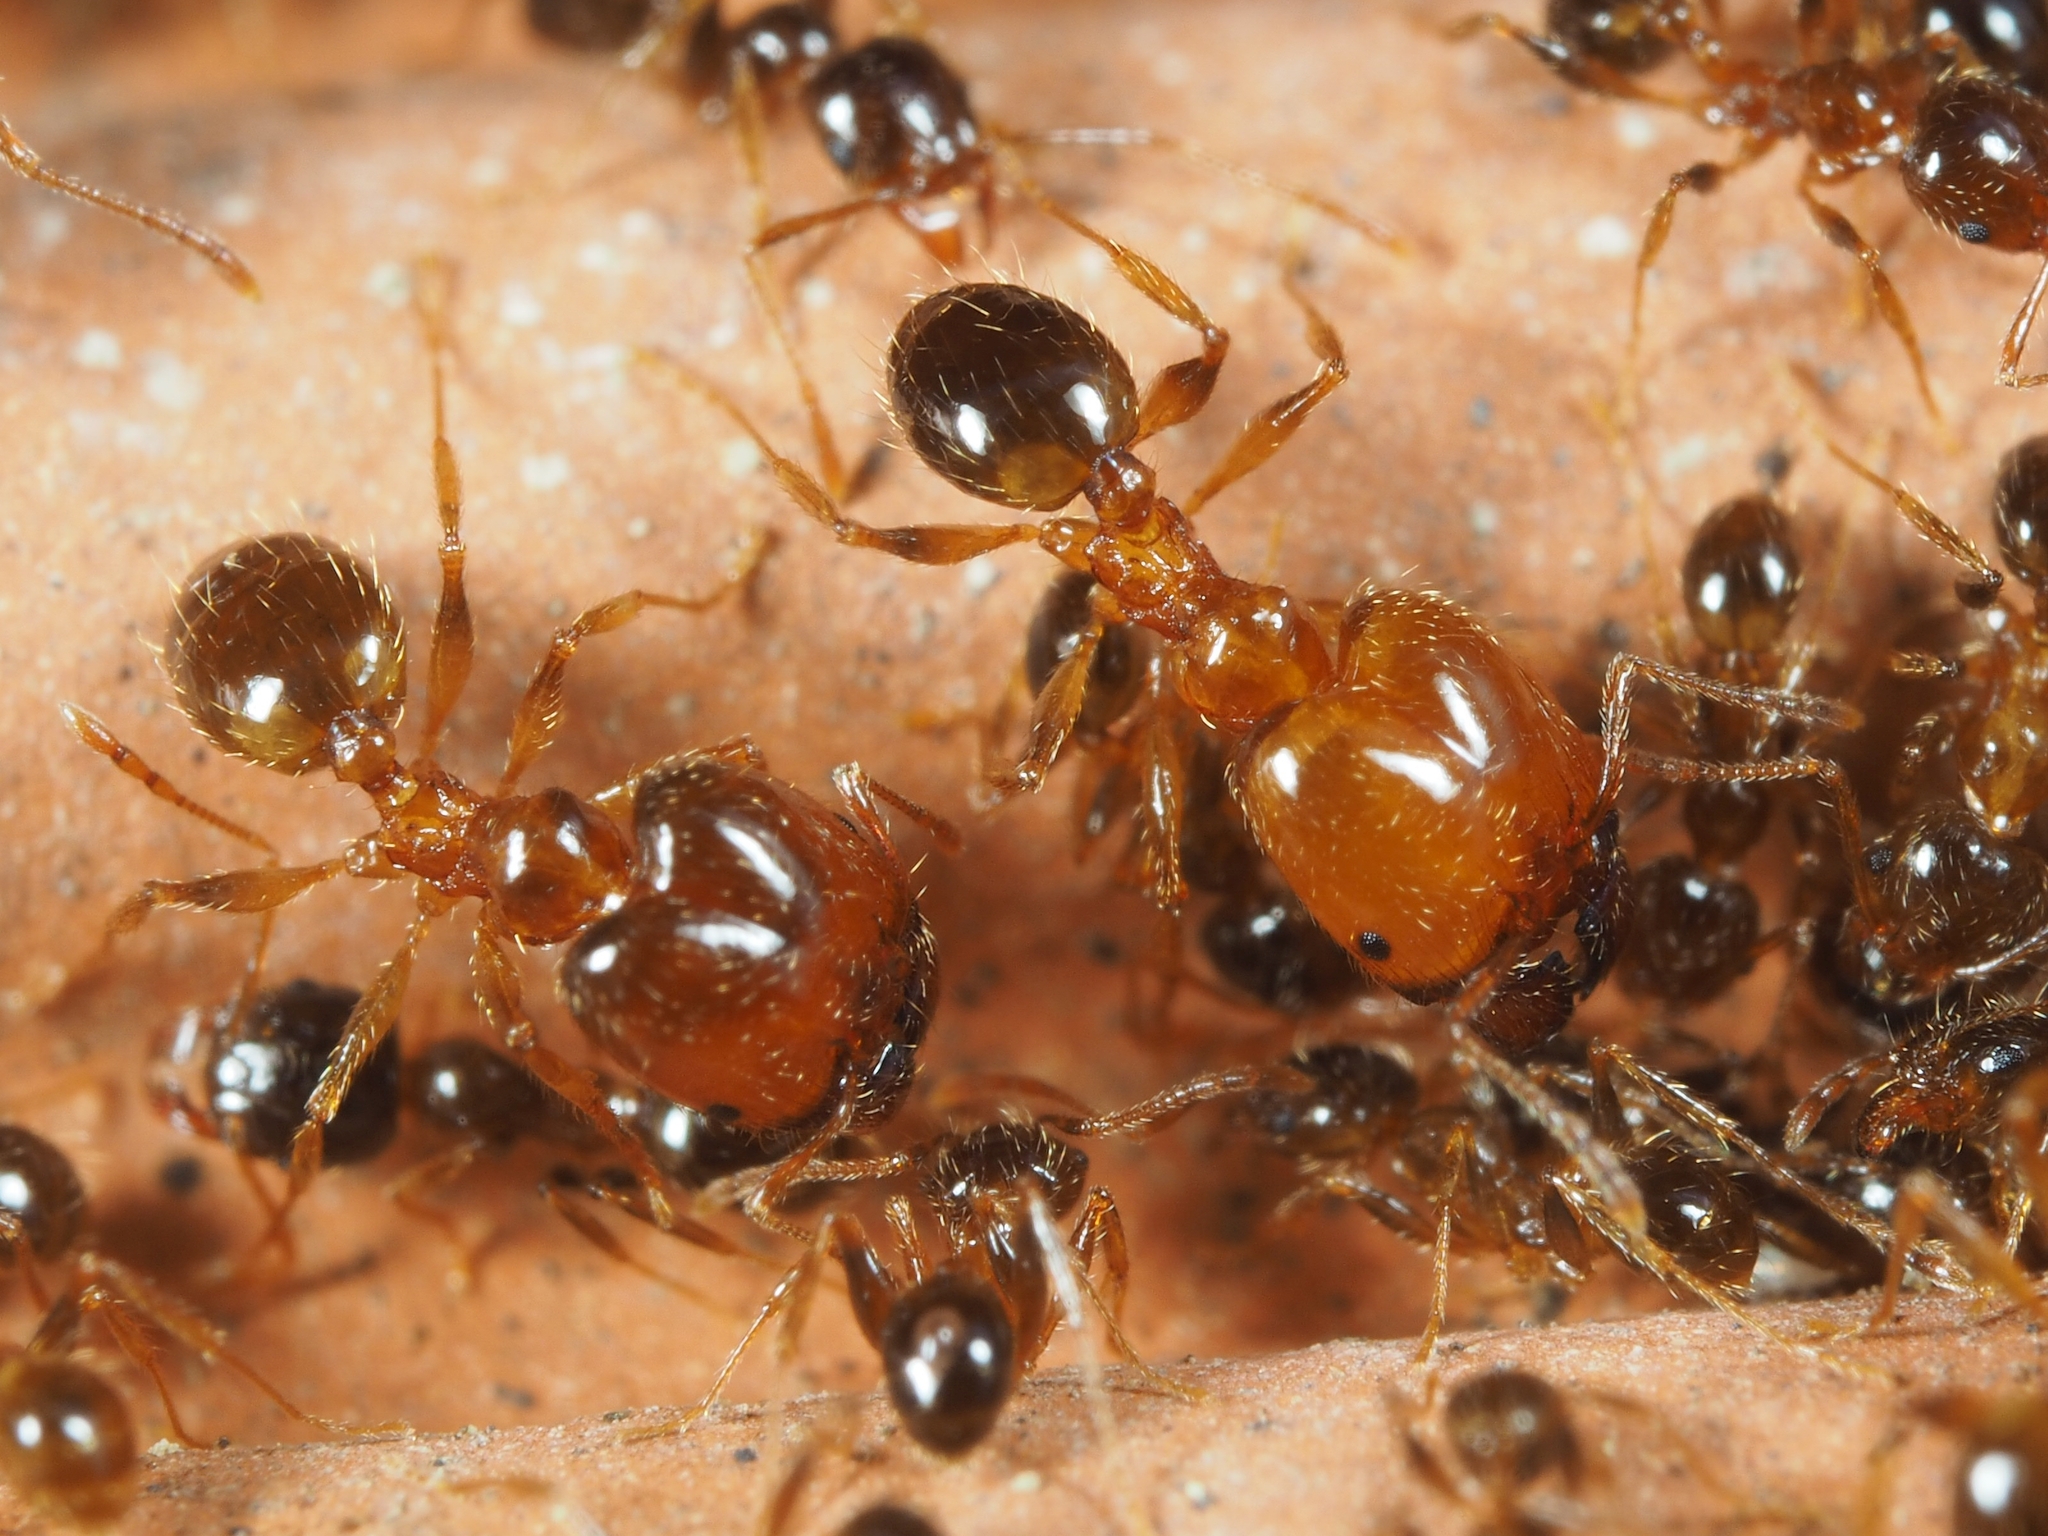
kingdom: Animalia
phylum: Arthropoda
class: Insecta
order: Hymenoptera
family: Formicidae
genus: Pheidole
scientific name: Pheidole pallidula
